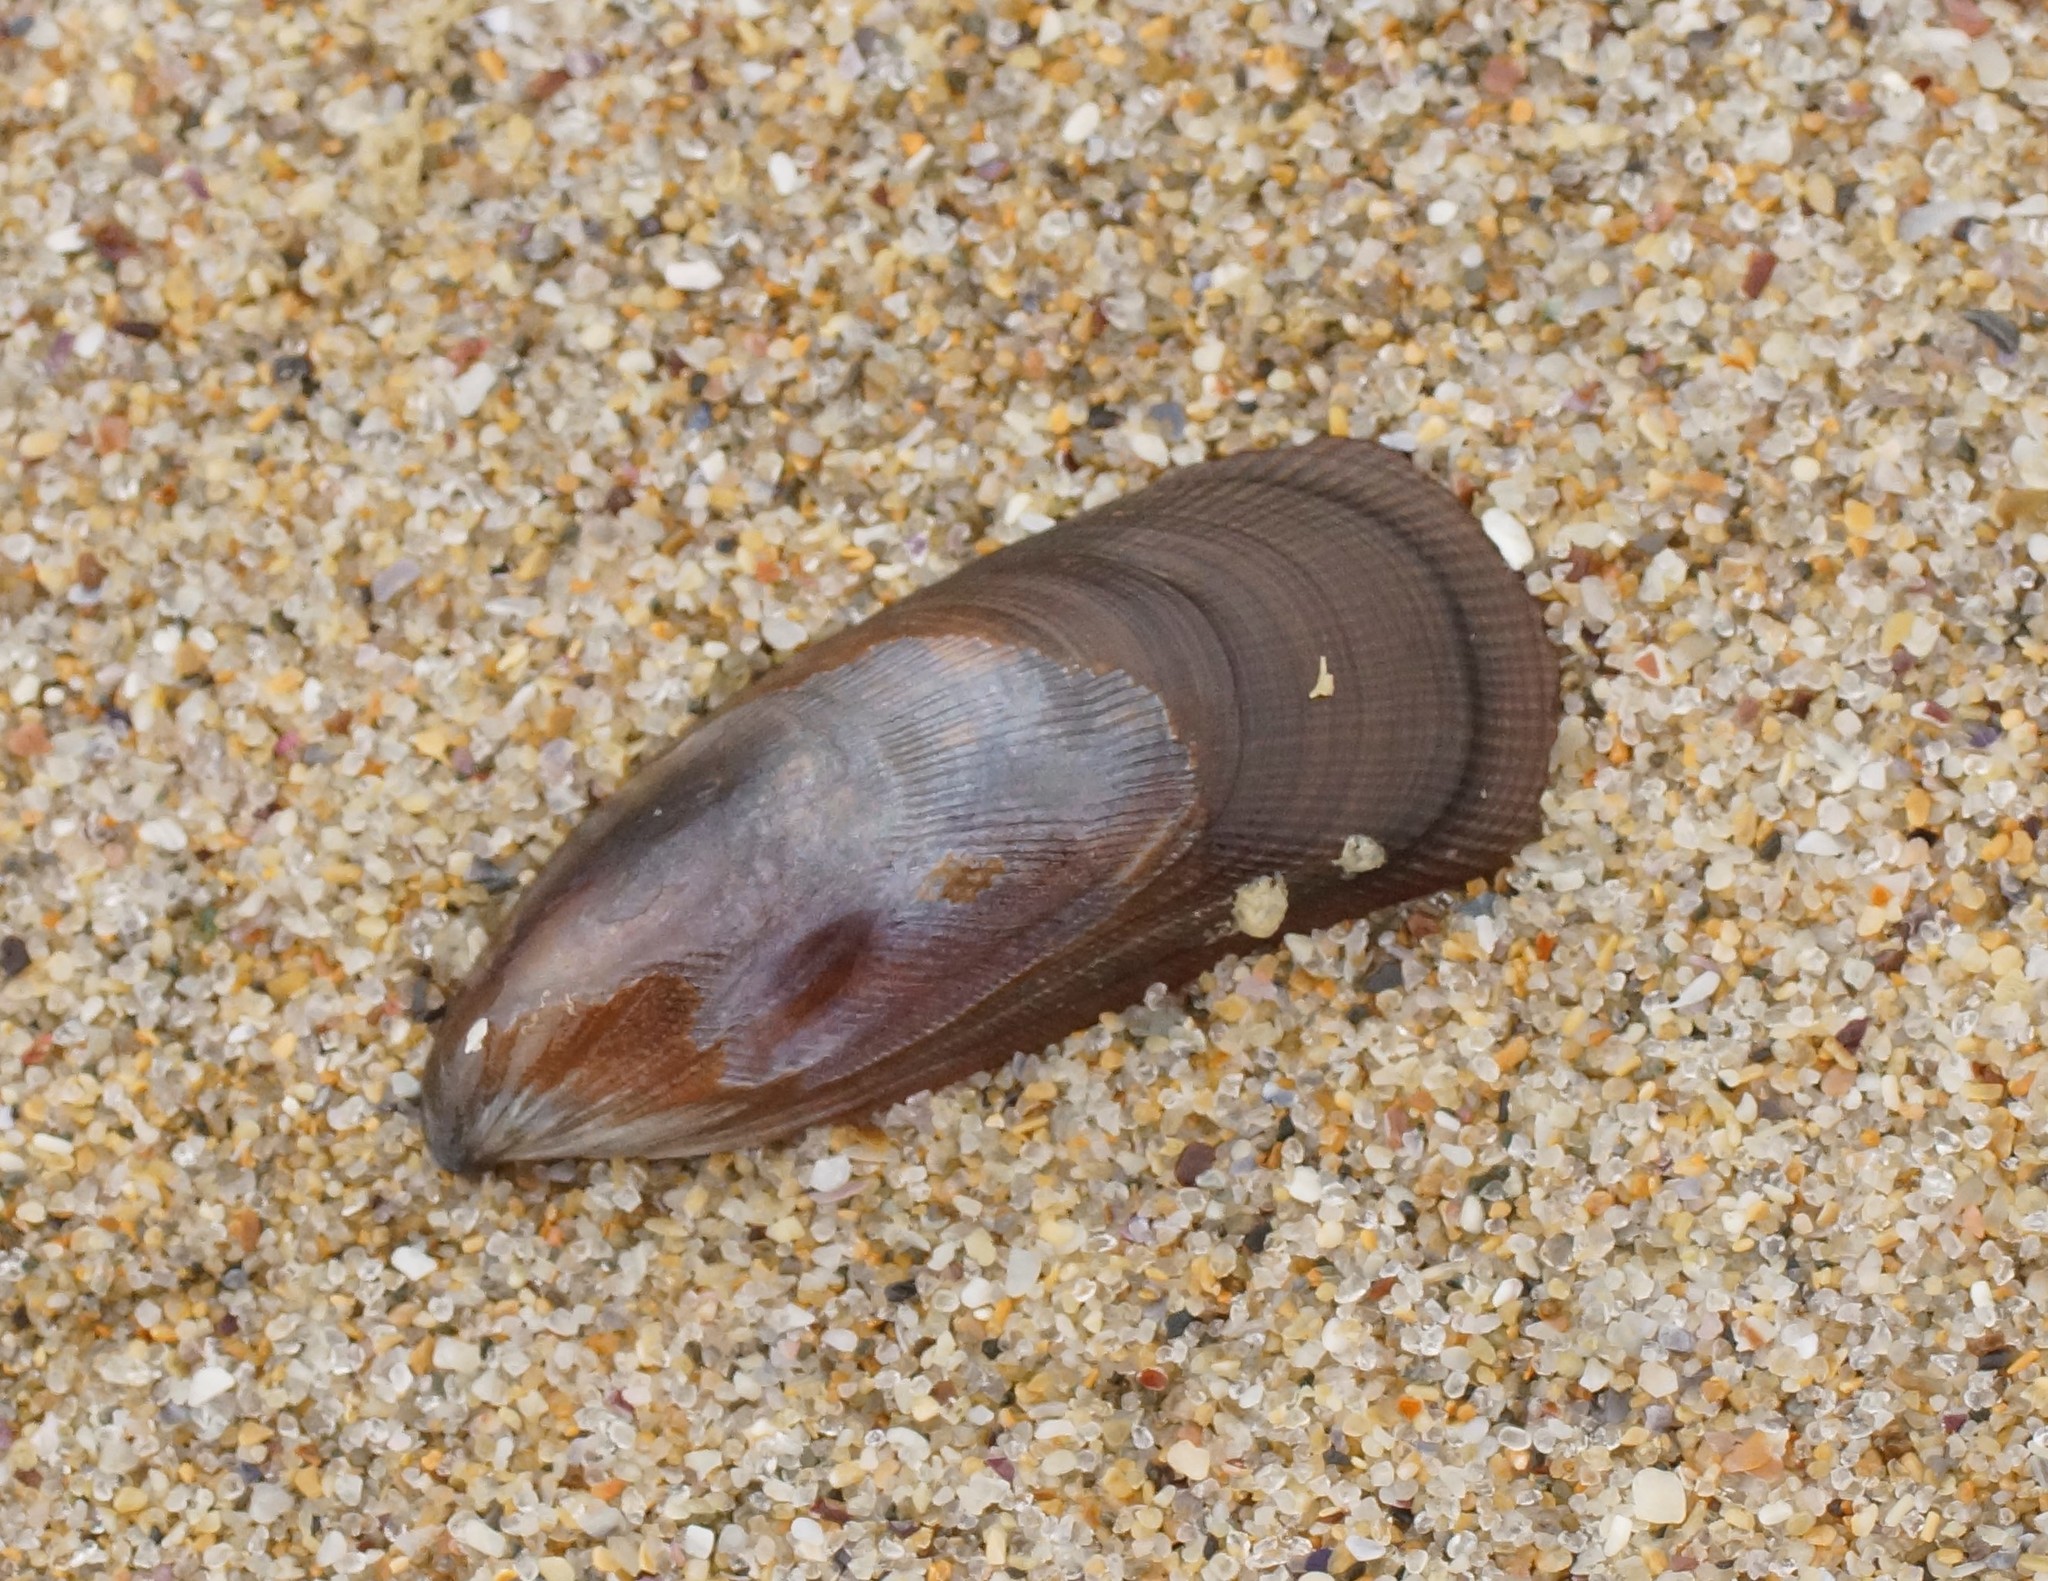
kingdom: Animalia
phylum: Mollusca
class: Bivalvia
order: Mytilida
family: Mytilidae
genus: Brachidontes
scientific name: Brachidontes rostratus
